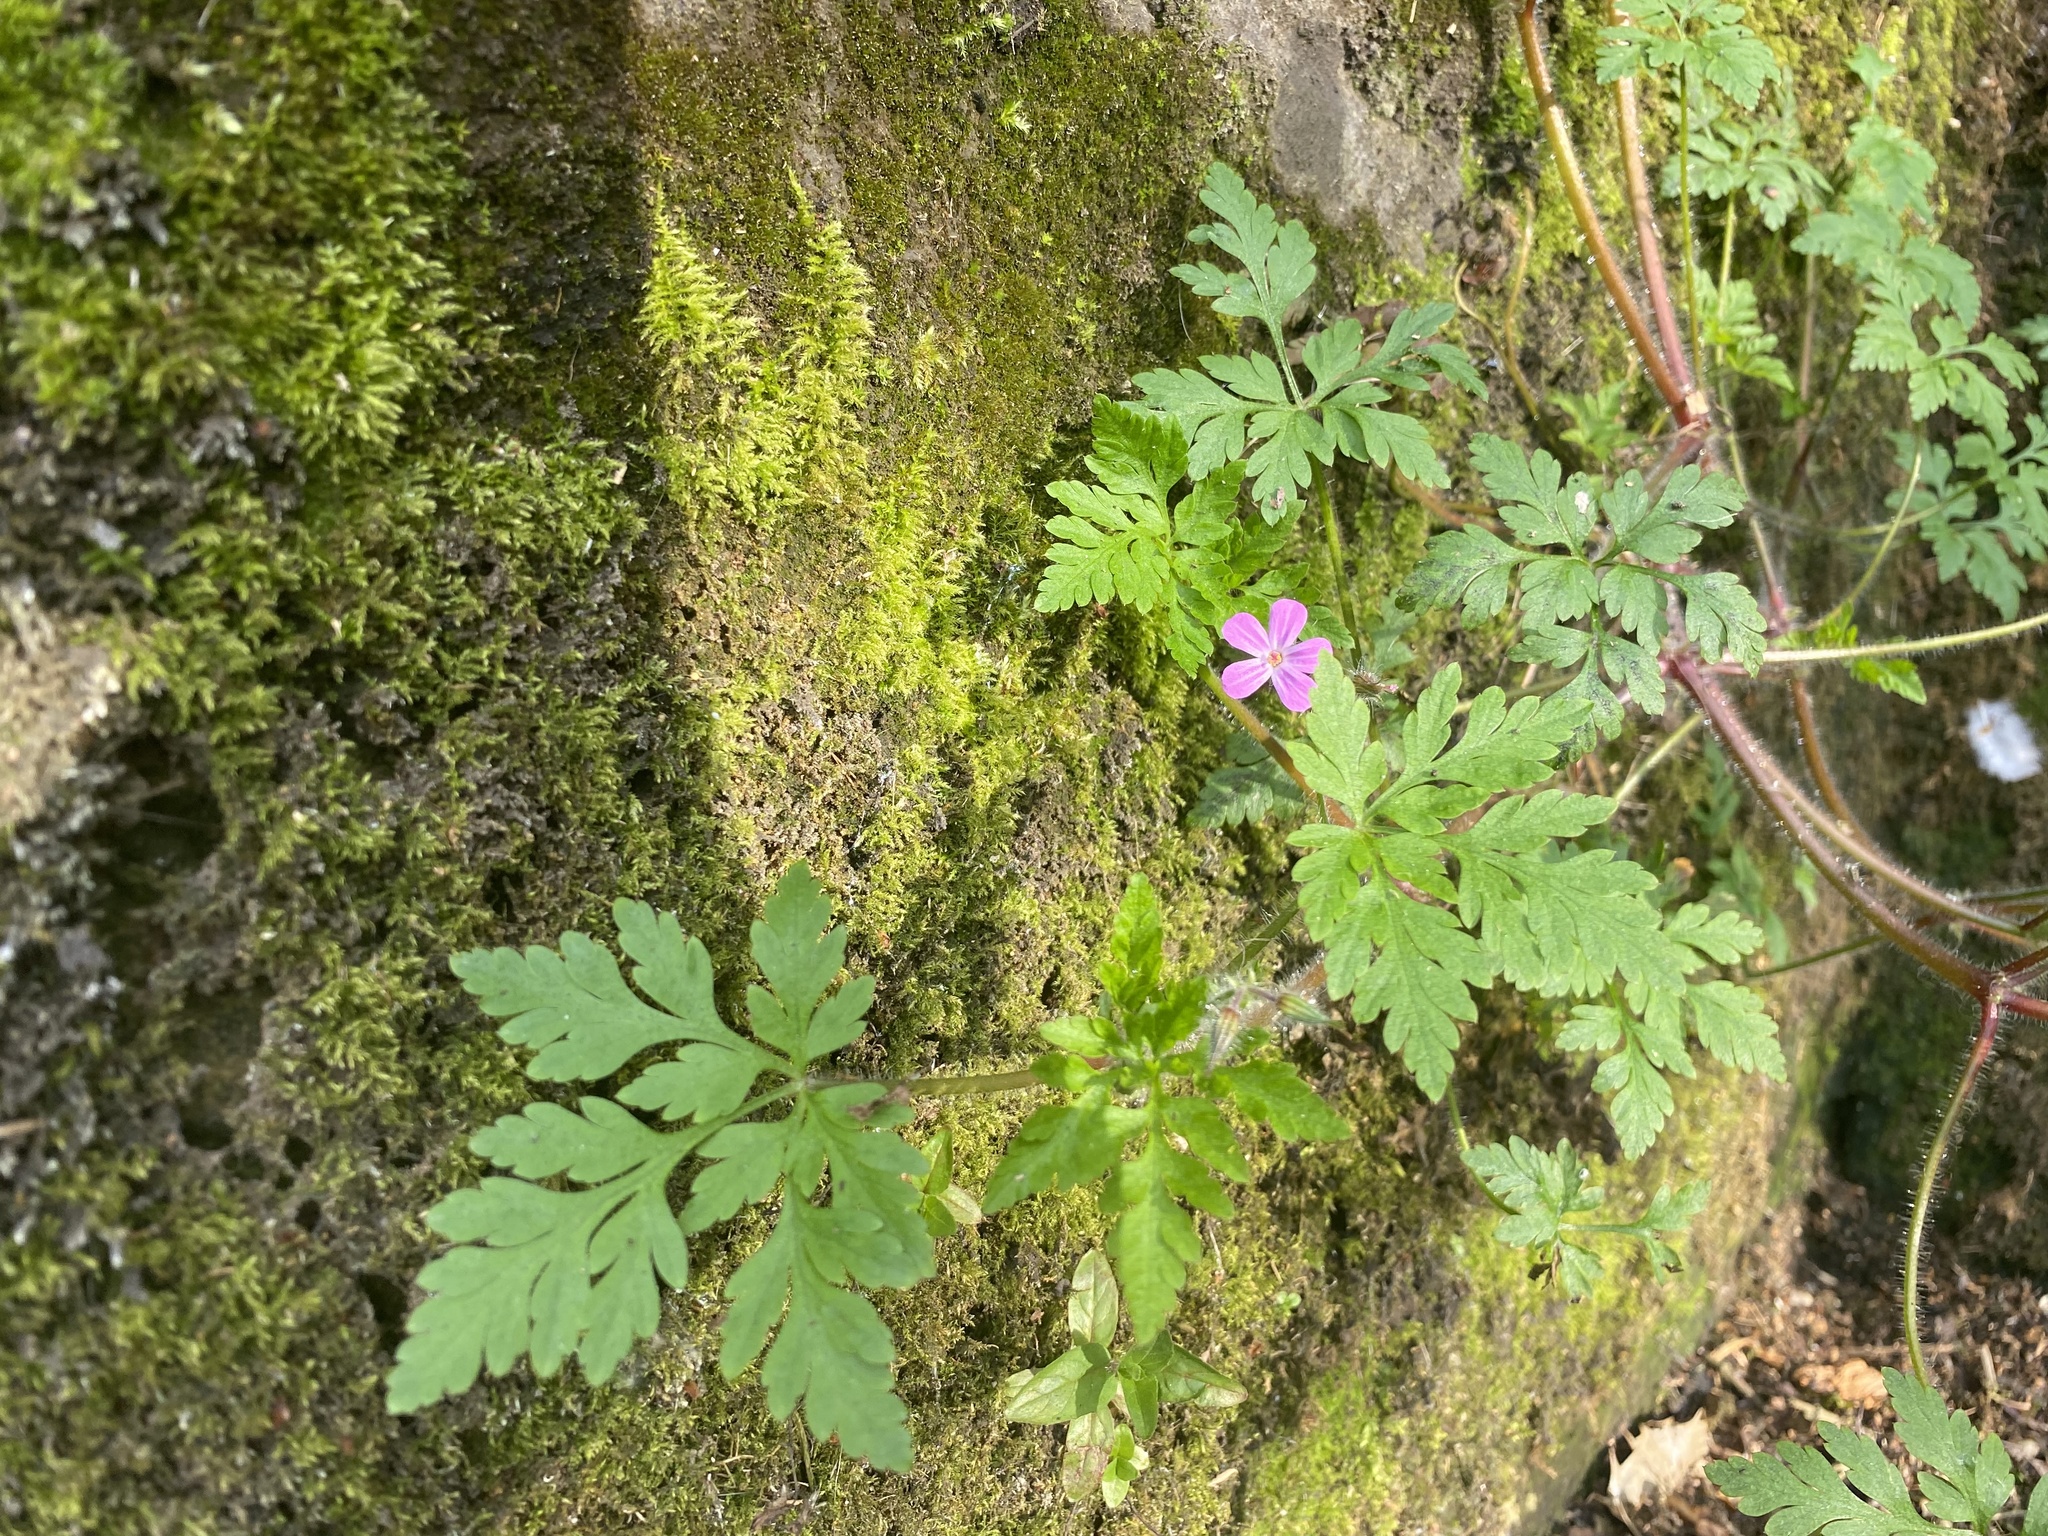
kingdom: Plantae
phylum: Tracheophyta
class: Magnoliopsida
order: Geraniales
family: Geraniaceae
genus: Geranium
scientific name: Geranium robertianum
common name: Herb-robert
